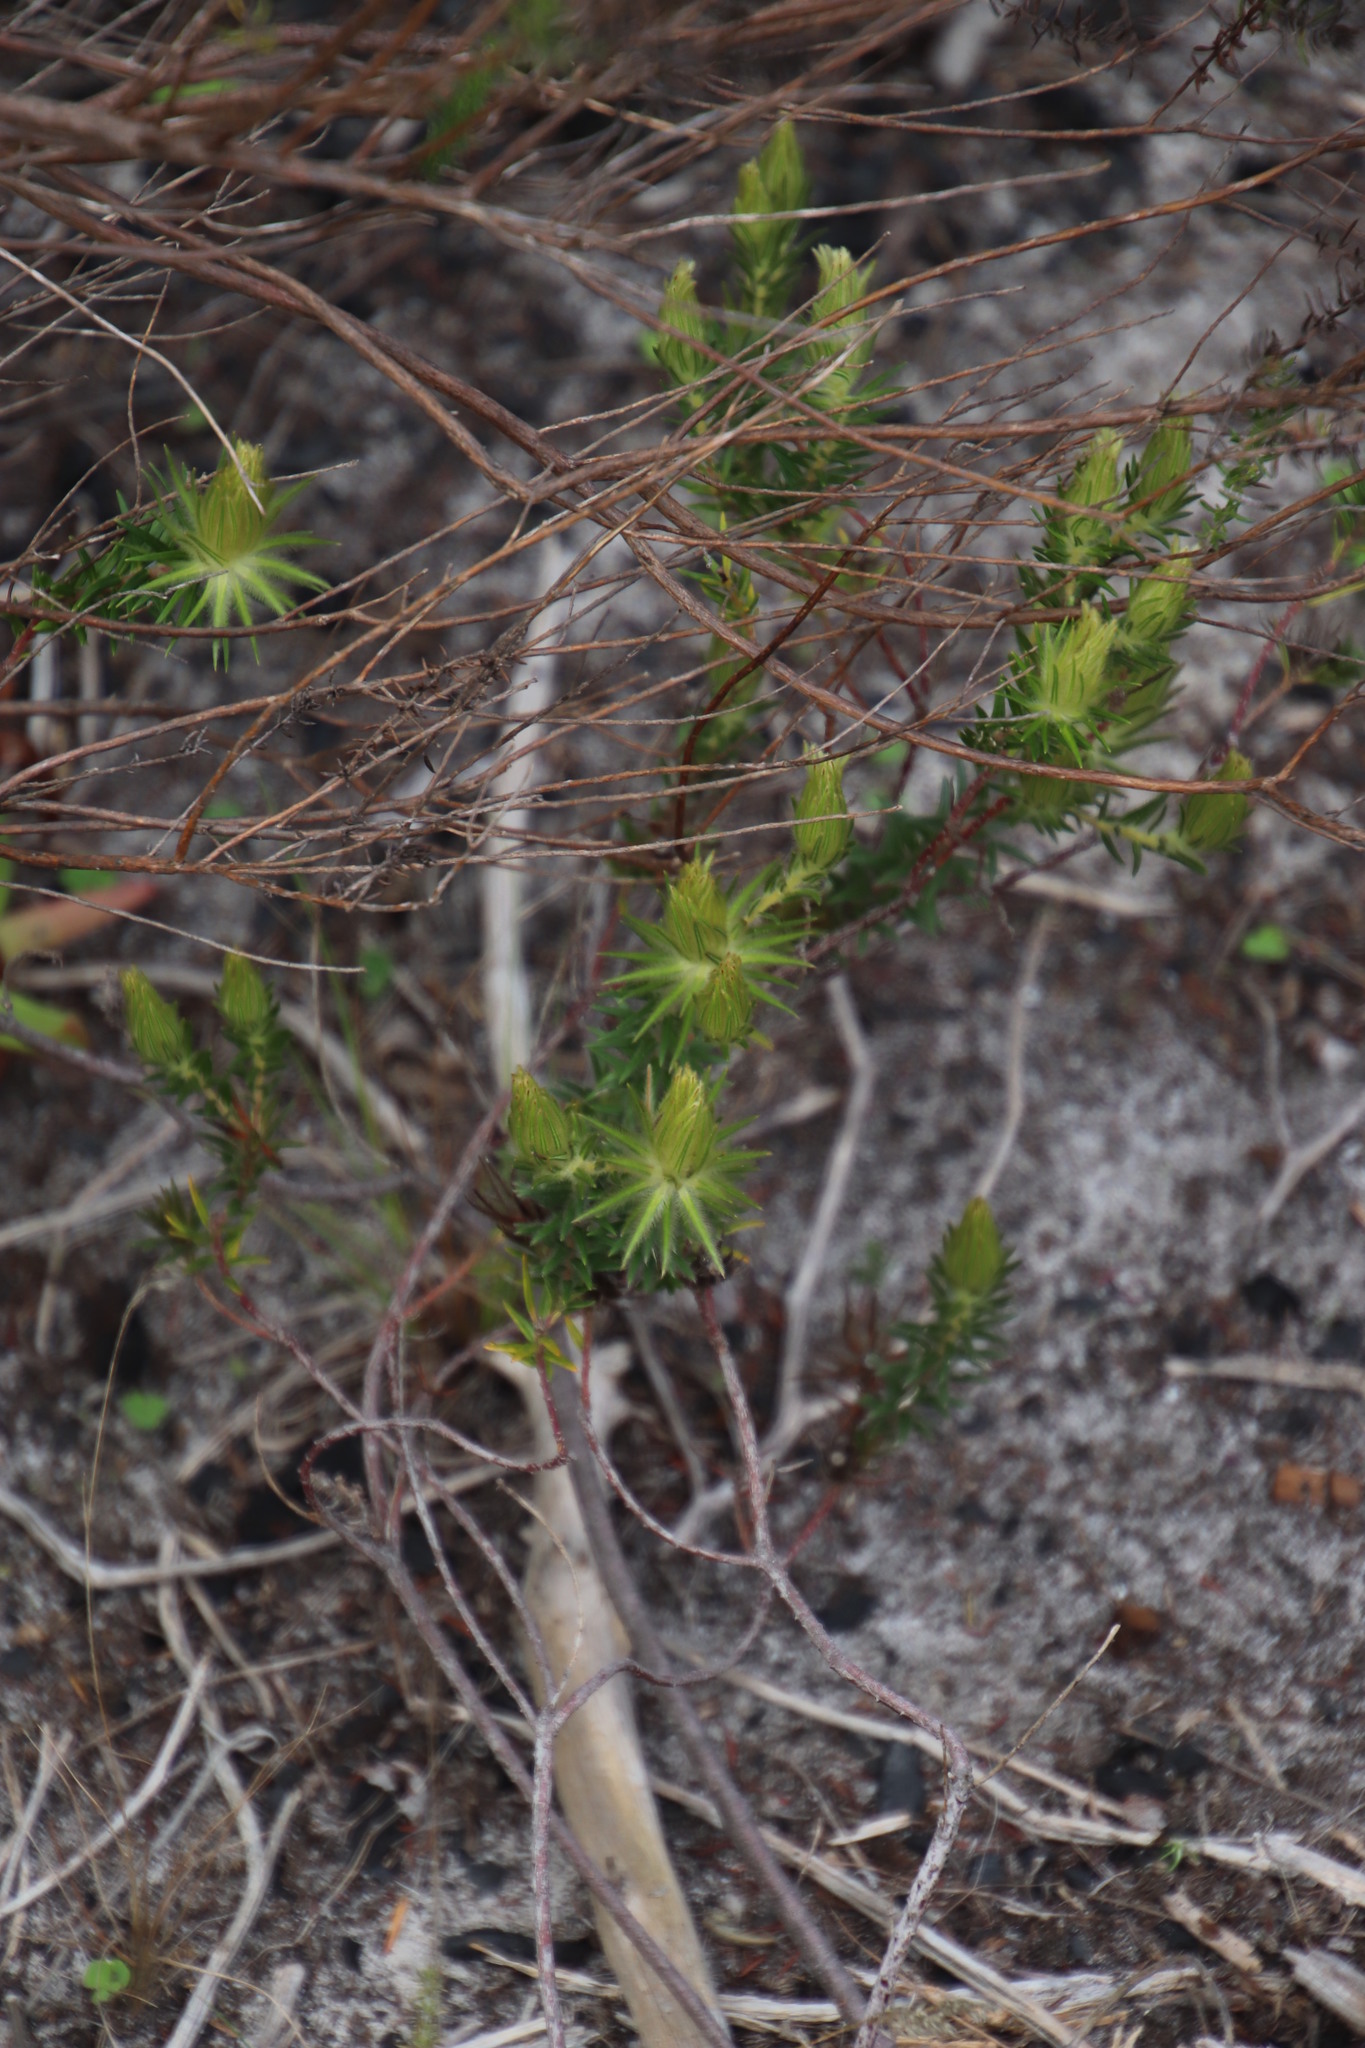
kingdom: Plantae
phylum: Tracheophyta
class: Magnoliopsida
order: Rosales
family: Rhamnaceae
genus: Phylica
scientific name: Phylica pubescens
